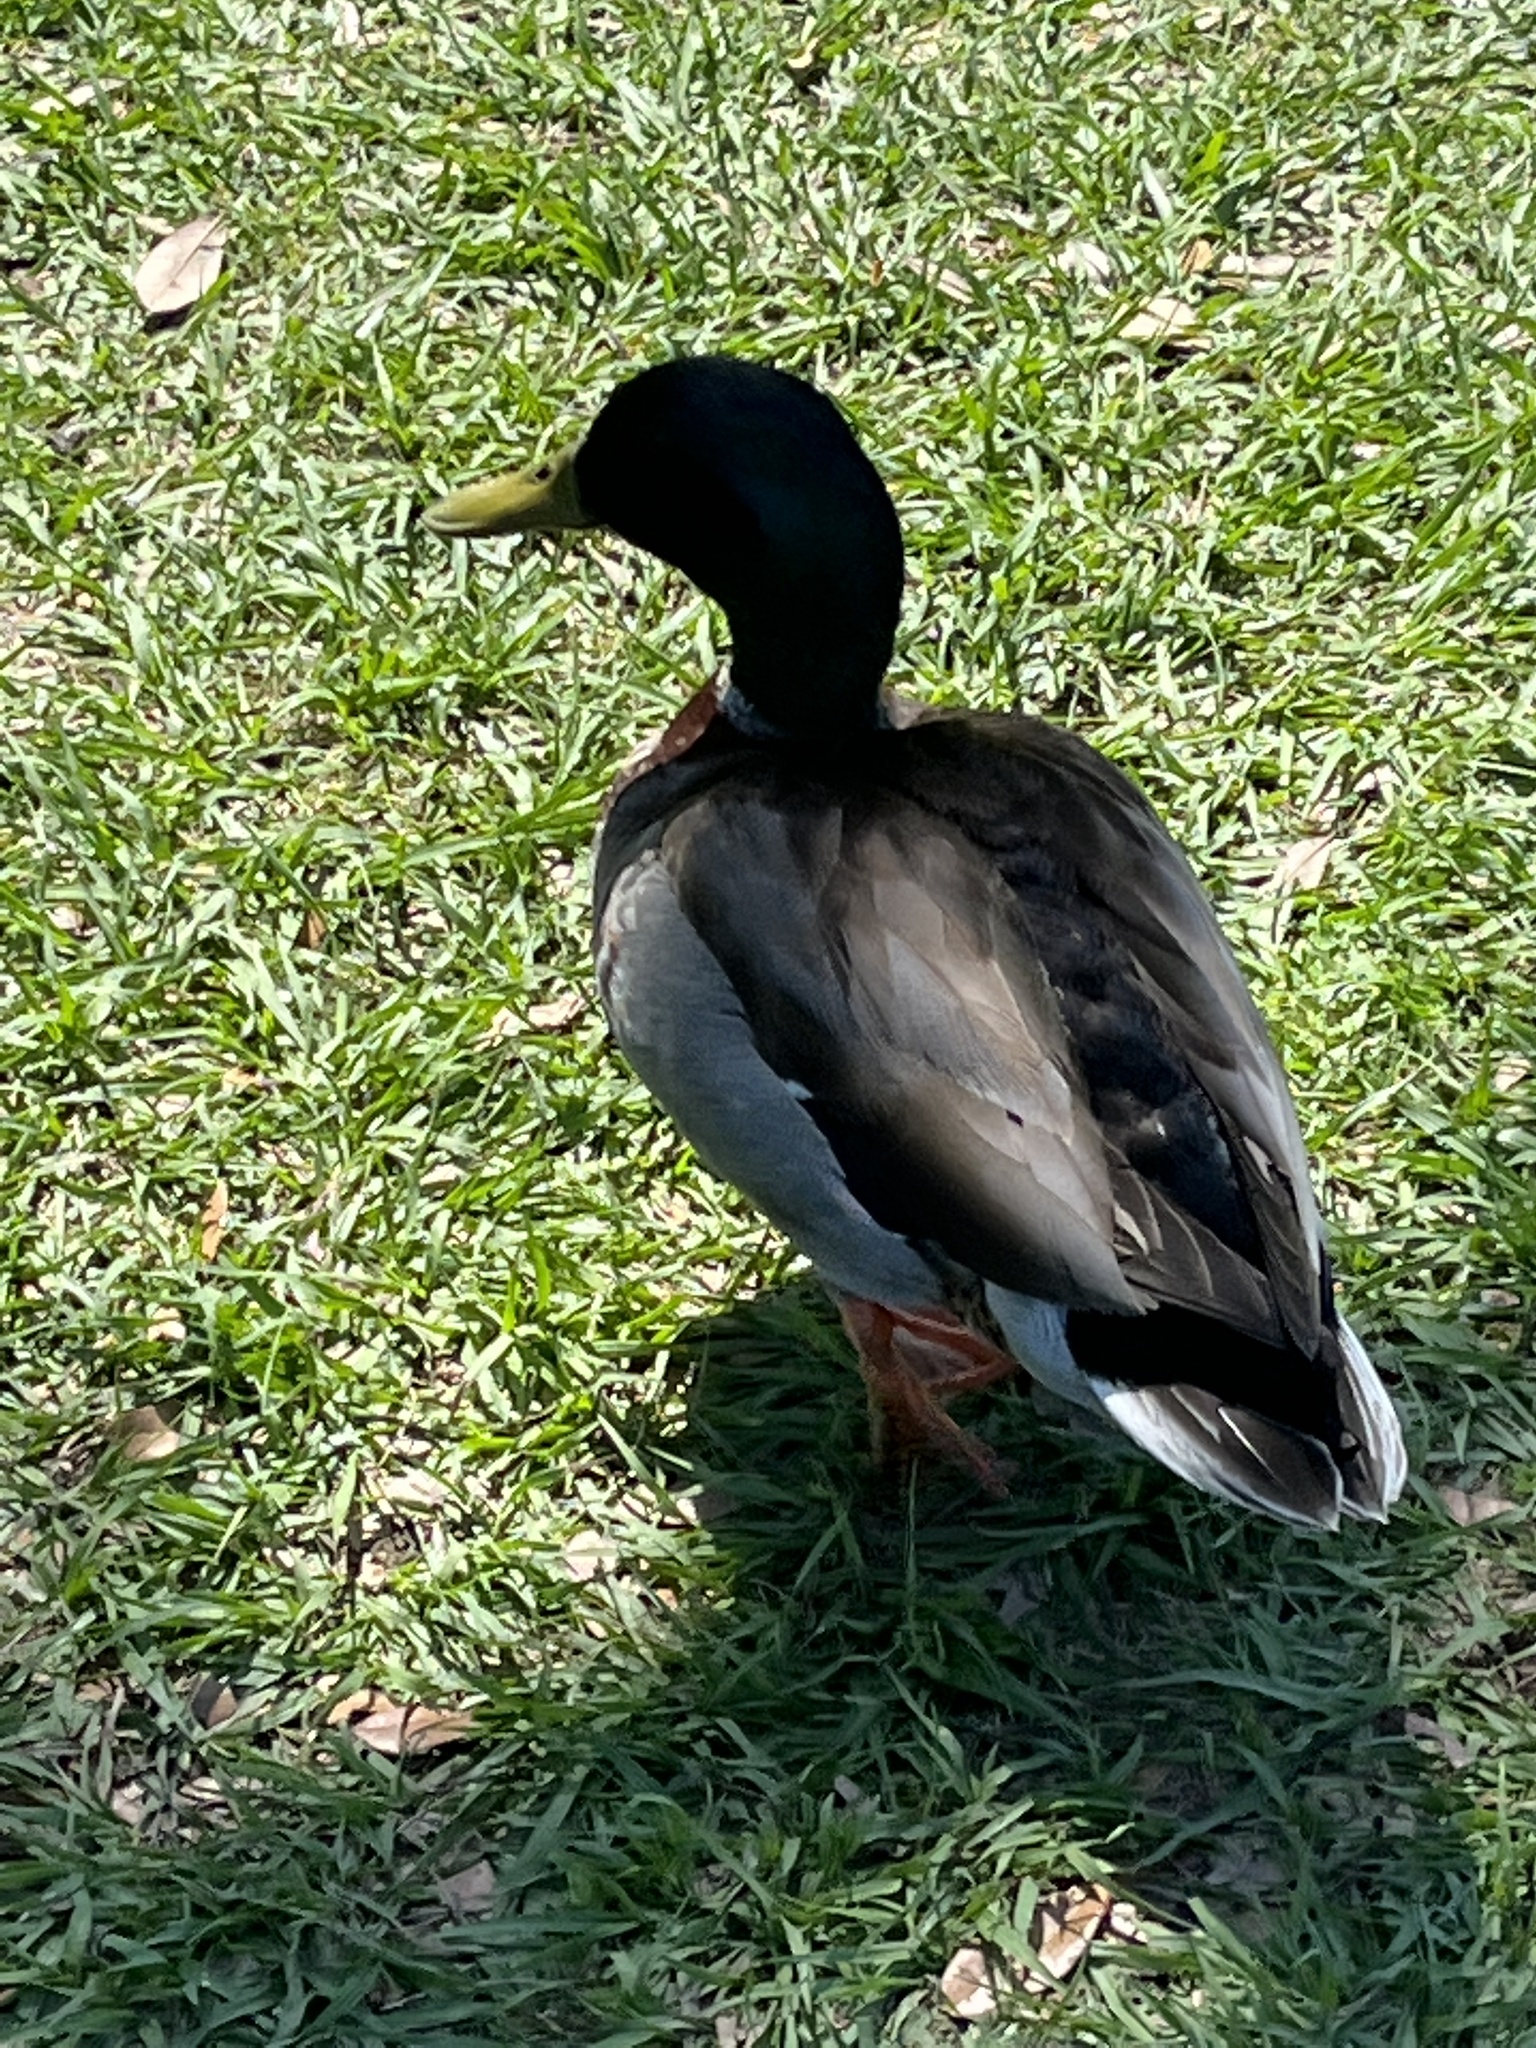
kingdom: Animalia
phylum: Chordata
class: Aves
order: Anseriformes
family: Anatidae
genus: Anas
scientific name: Anas platyrhynchos
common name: Mallard
